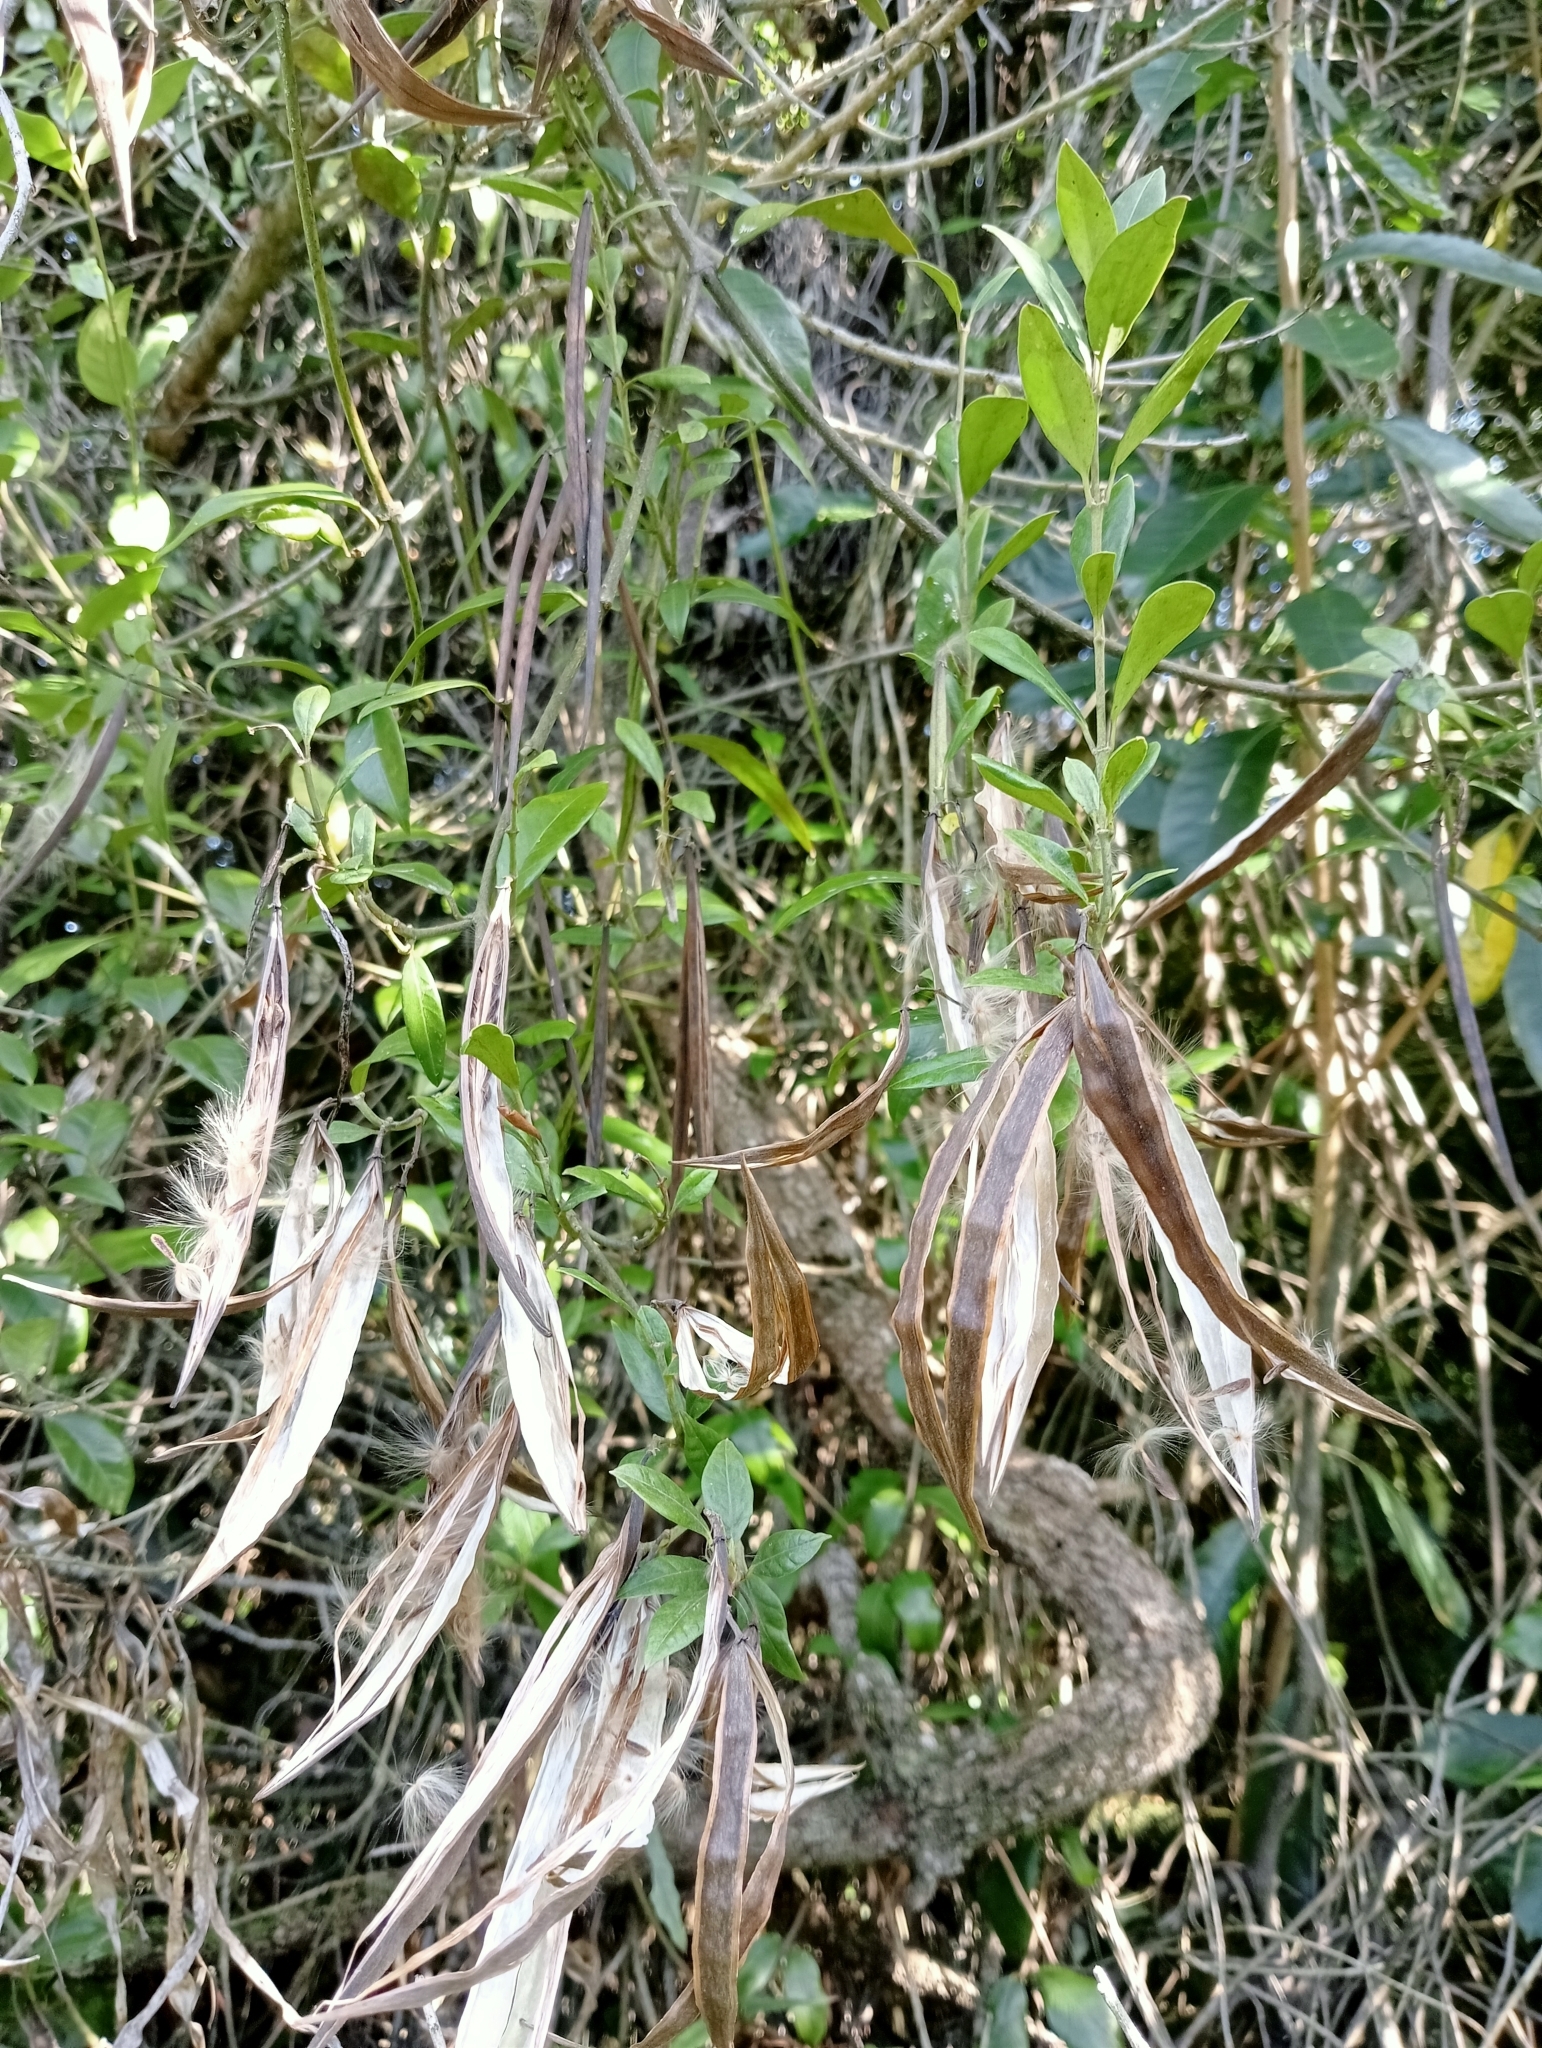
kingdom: Plantae
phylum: Tracheophyta
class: Magnoliopsida
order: Gentianales
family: Apocynaceae
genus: Parsonsia
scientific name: Parsonsia heterophylla
